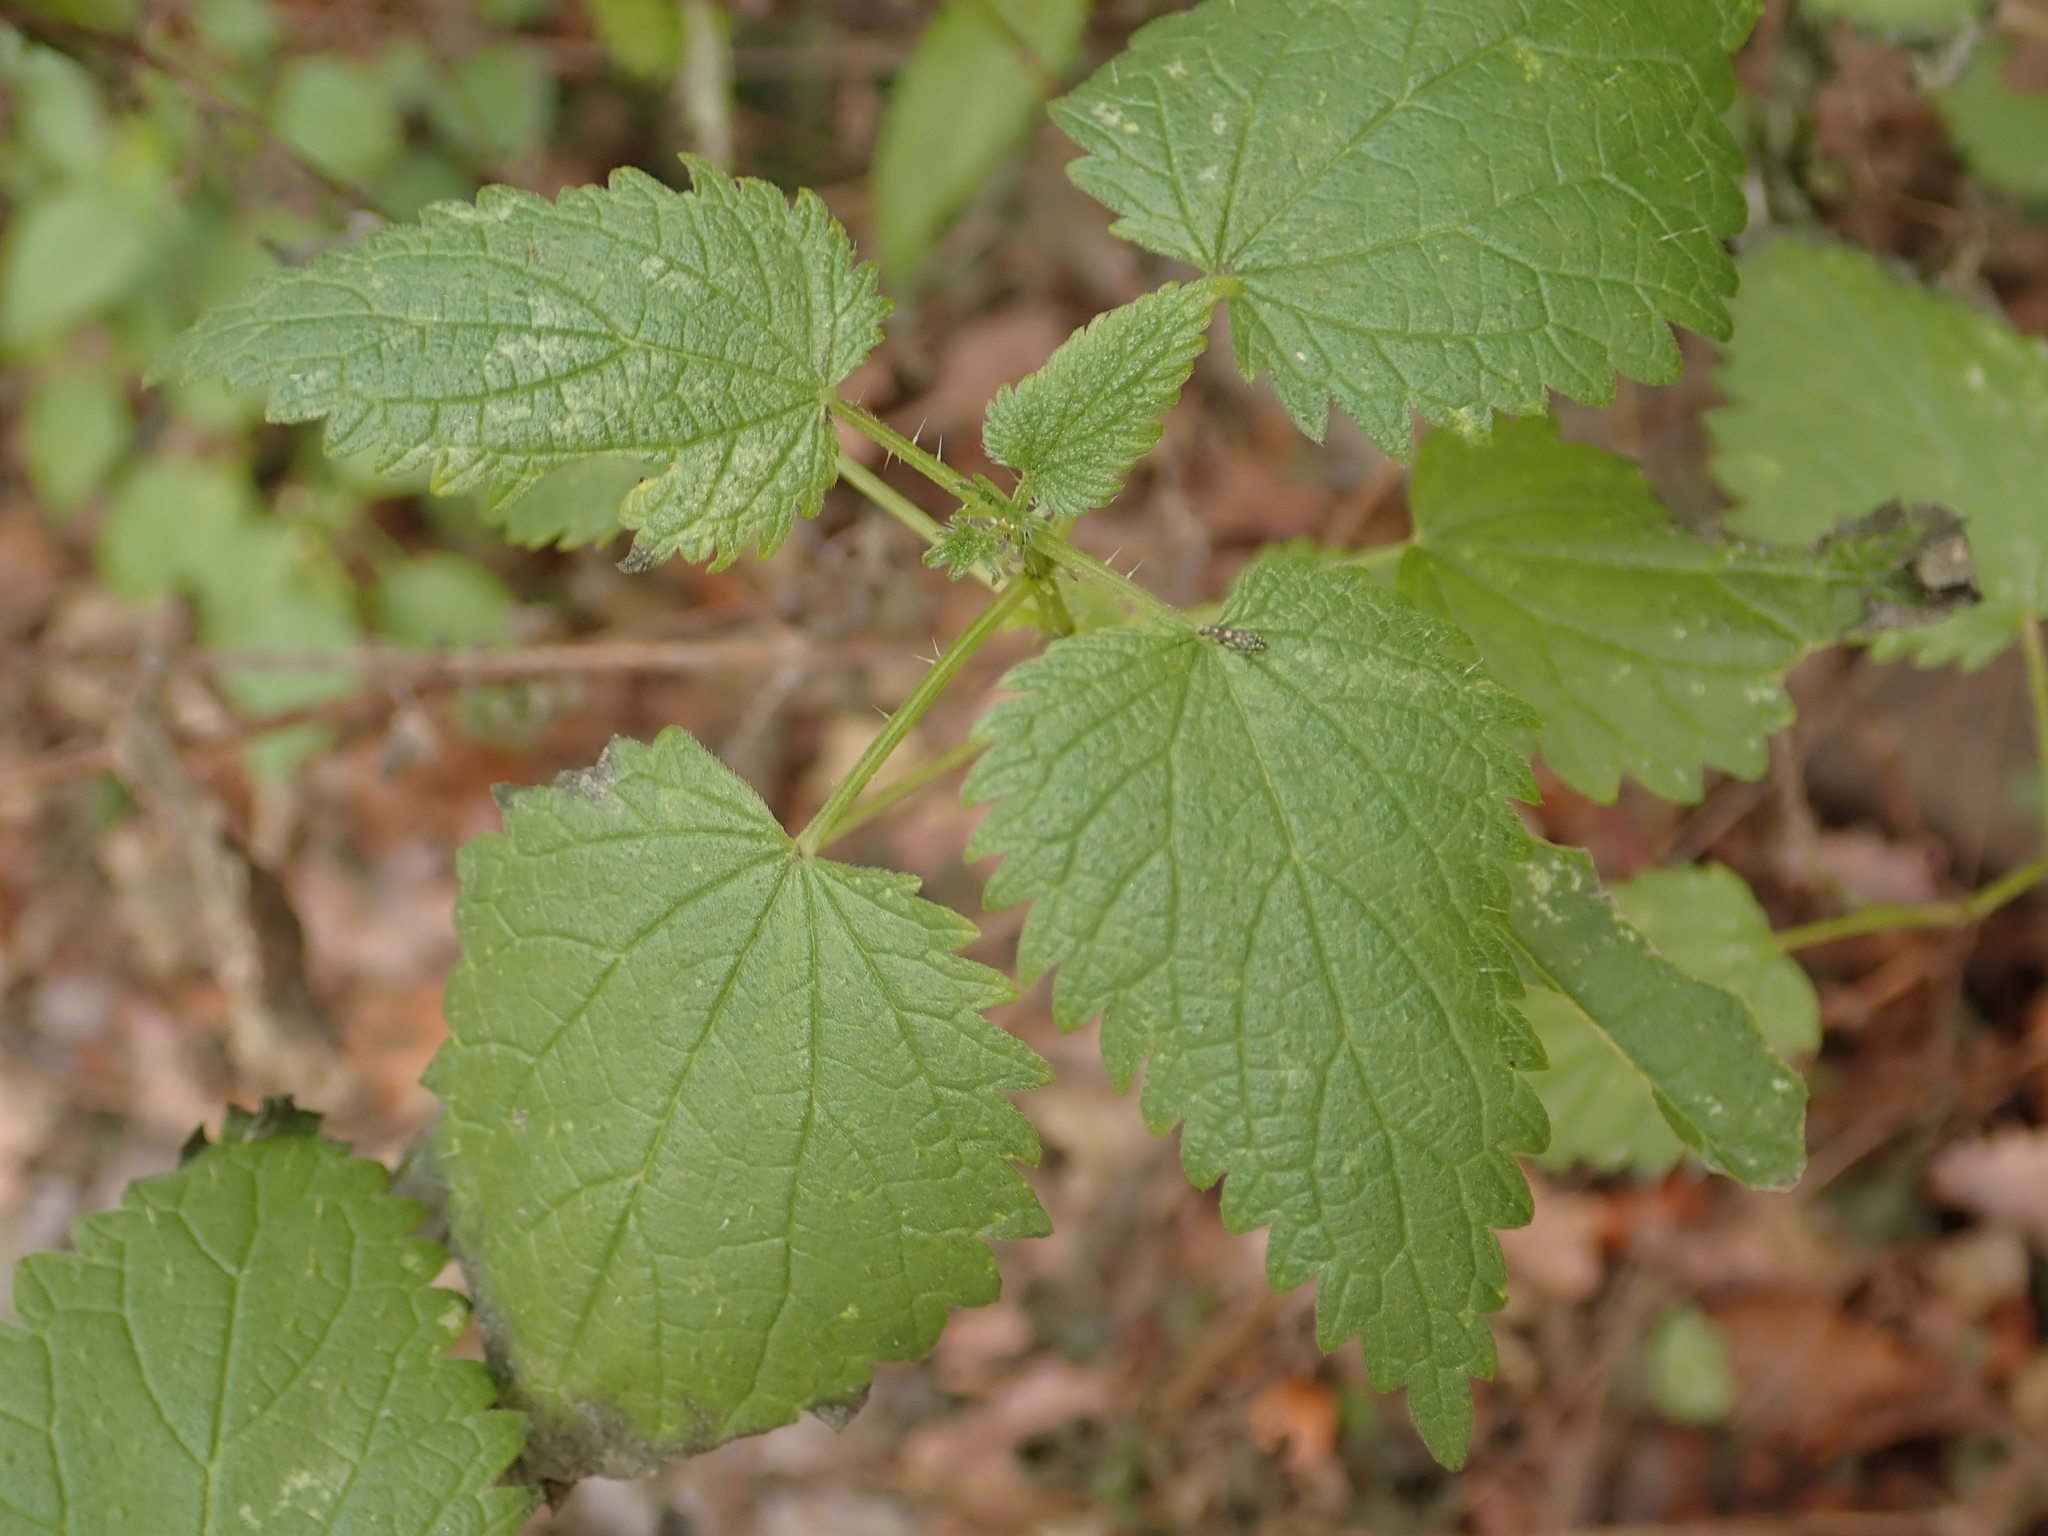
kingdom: Plantae
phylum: Tracheophyta
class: Magnoliopsida
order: Rosales
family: Urticaceae
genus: Urtica
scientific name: Urtica dioica
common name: Common nettle
